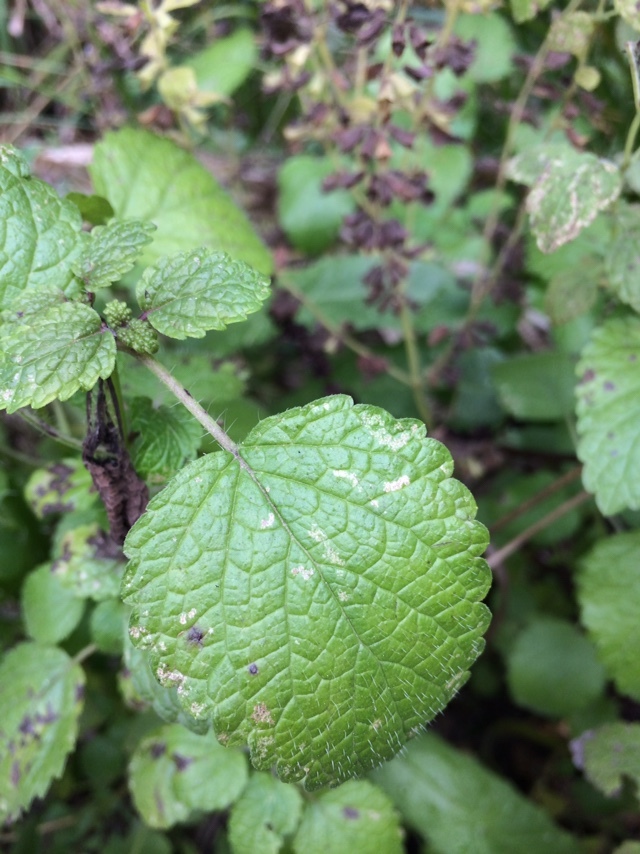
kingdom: Plantae
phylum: Tracheophyta
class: Magnoliopsida
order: Lamiales
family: Lamiaceae
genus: Melissa
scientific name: Melissa officinalis
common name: Balm
